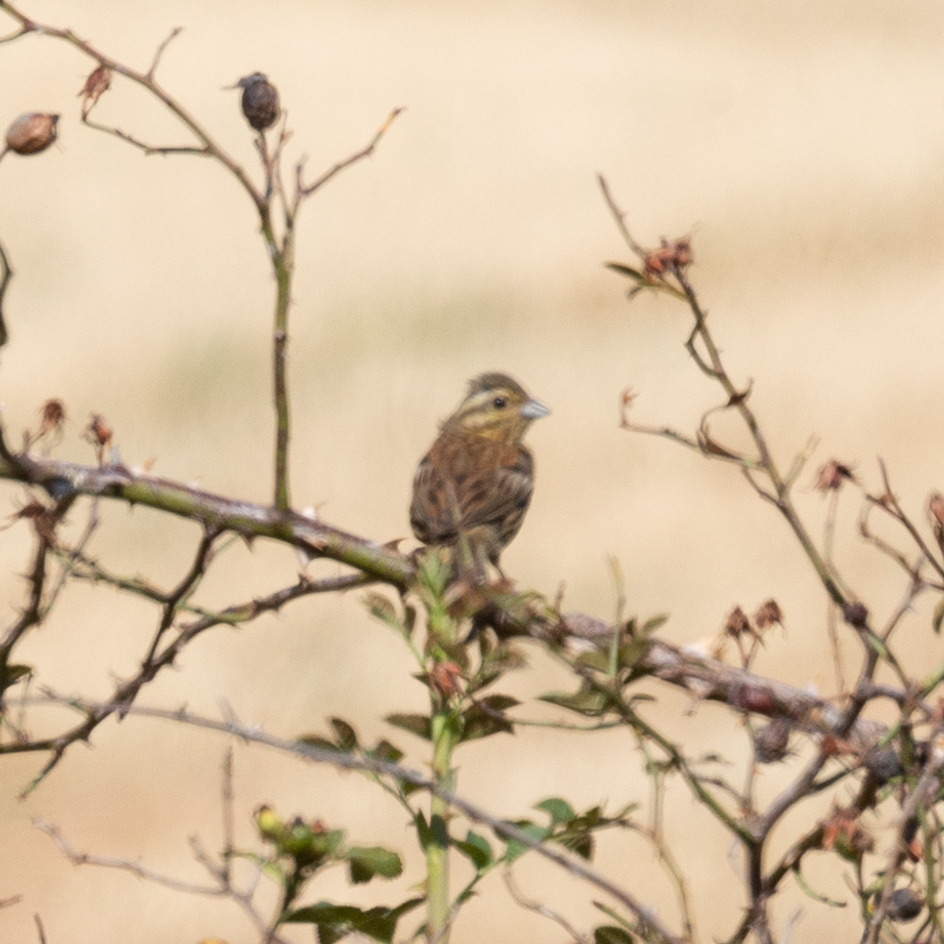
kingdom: Animalia
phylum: Chordata
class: Aves
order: Passeriformes
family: Emberizidae
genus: Emberiza
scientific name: Emberiza cirlus
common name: Cirl bunting
